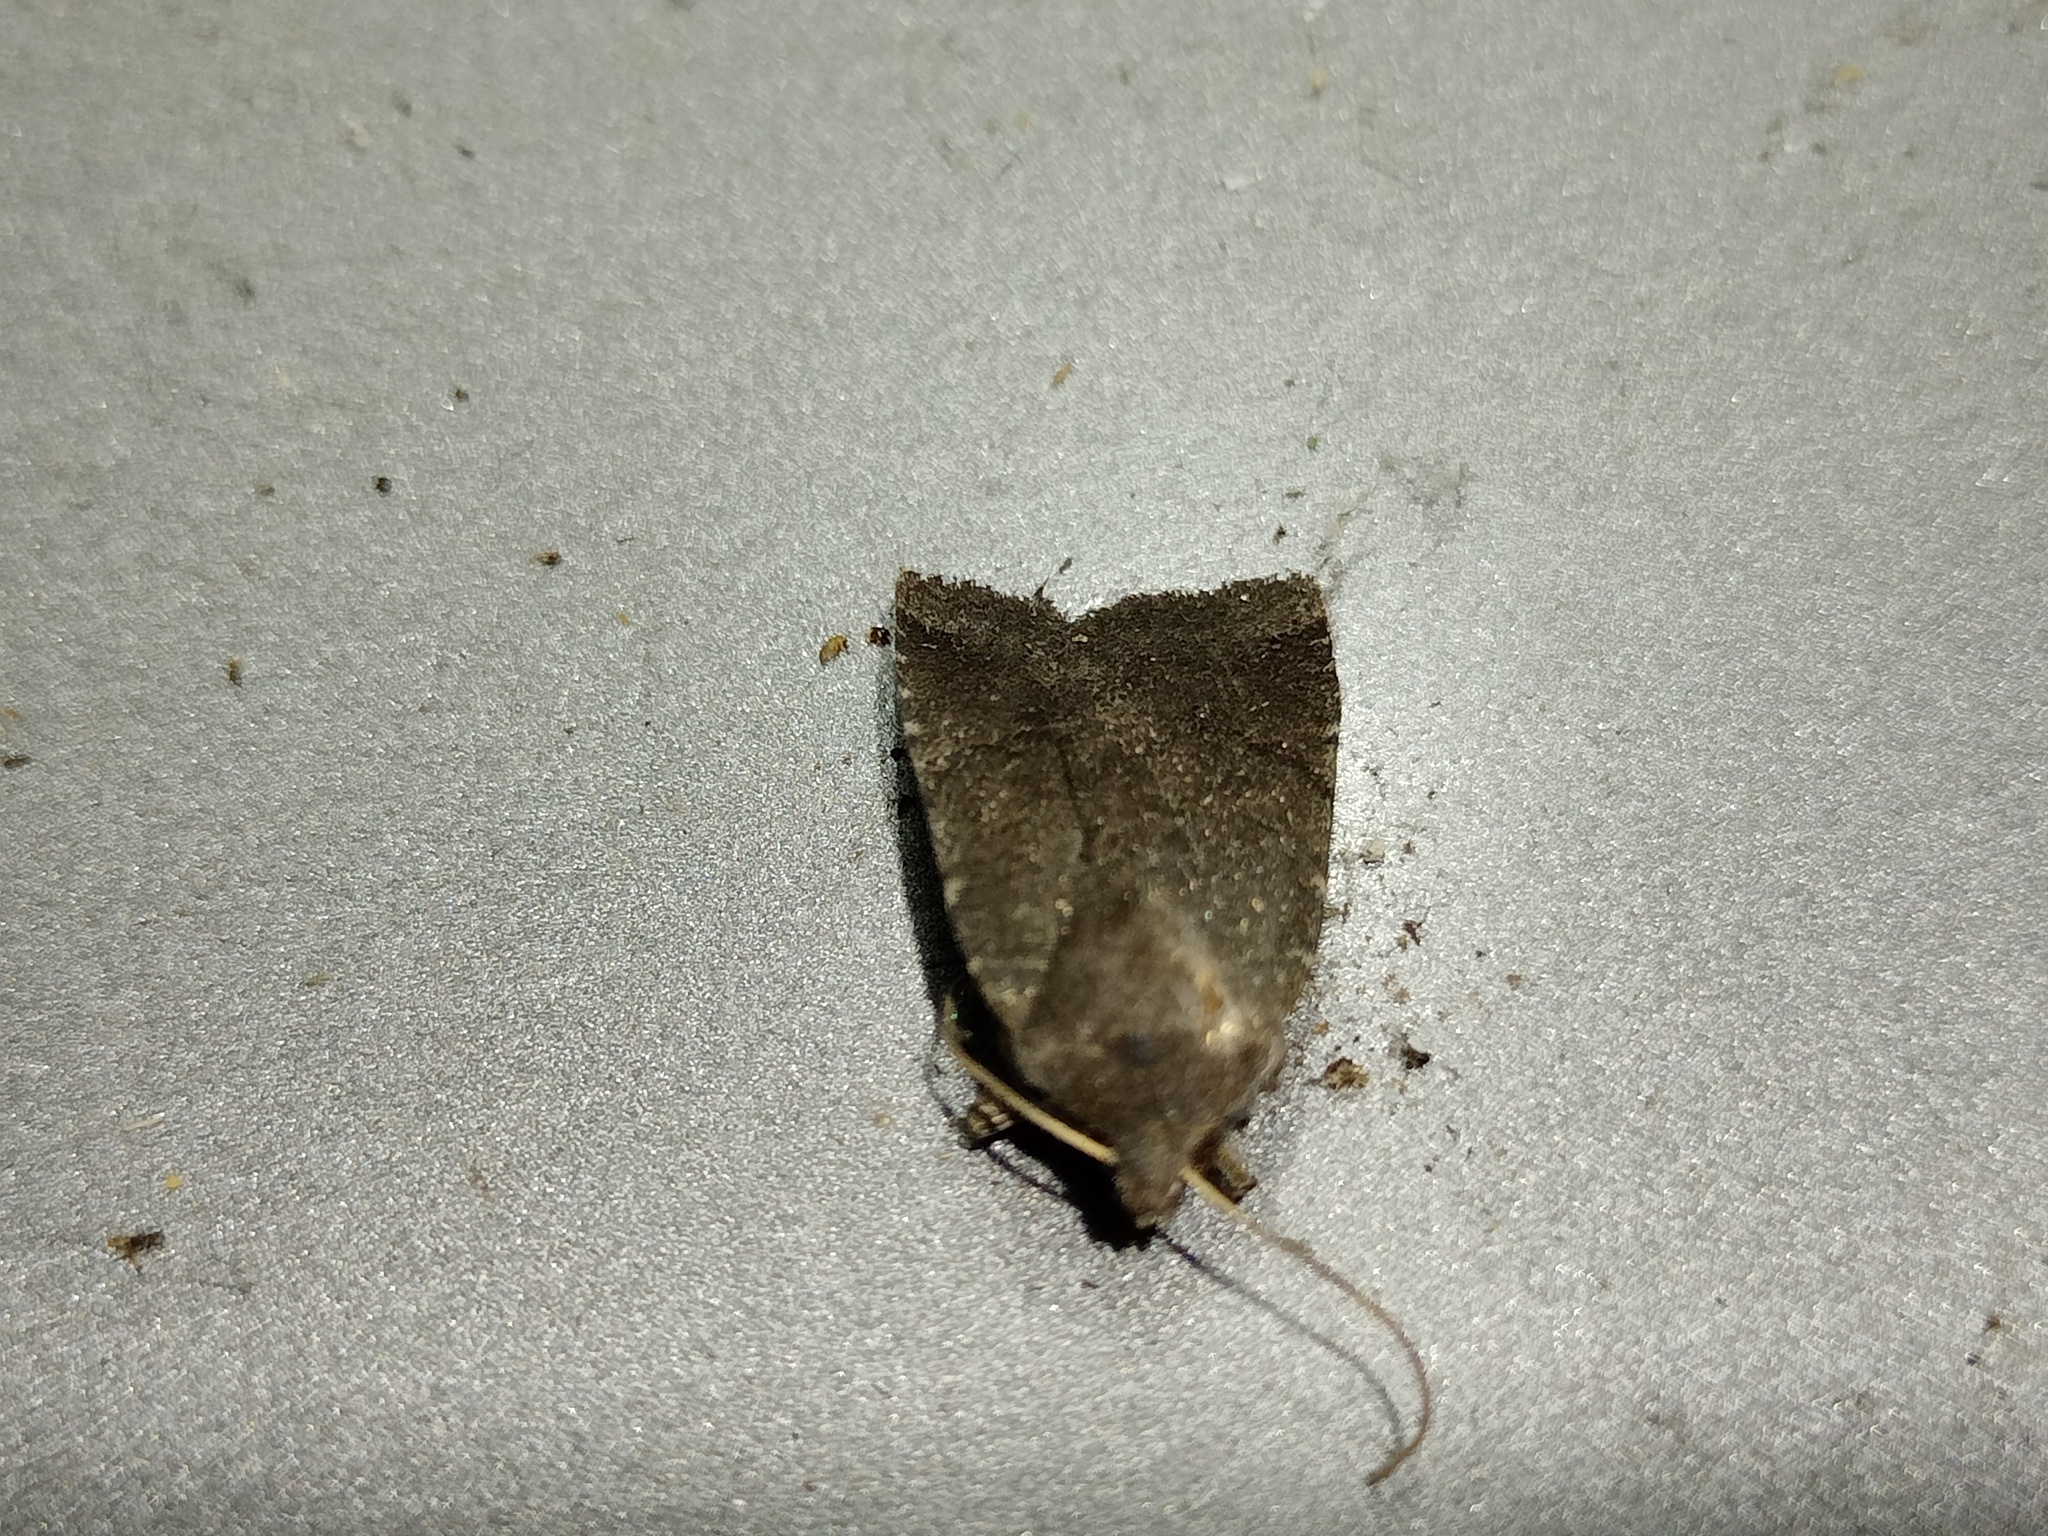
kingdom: Animalia
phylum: Arthropoda
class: Insecta
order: Lepidoptera
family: Noctuidae
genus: Conistra
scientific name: Conistra ligula
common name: Dark chestnut
